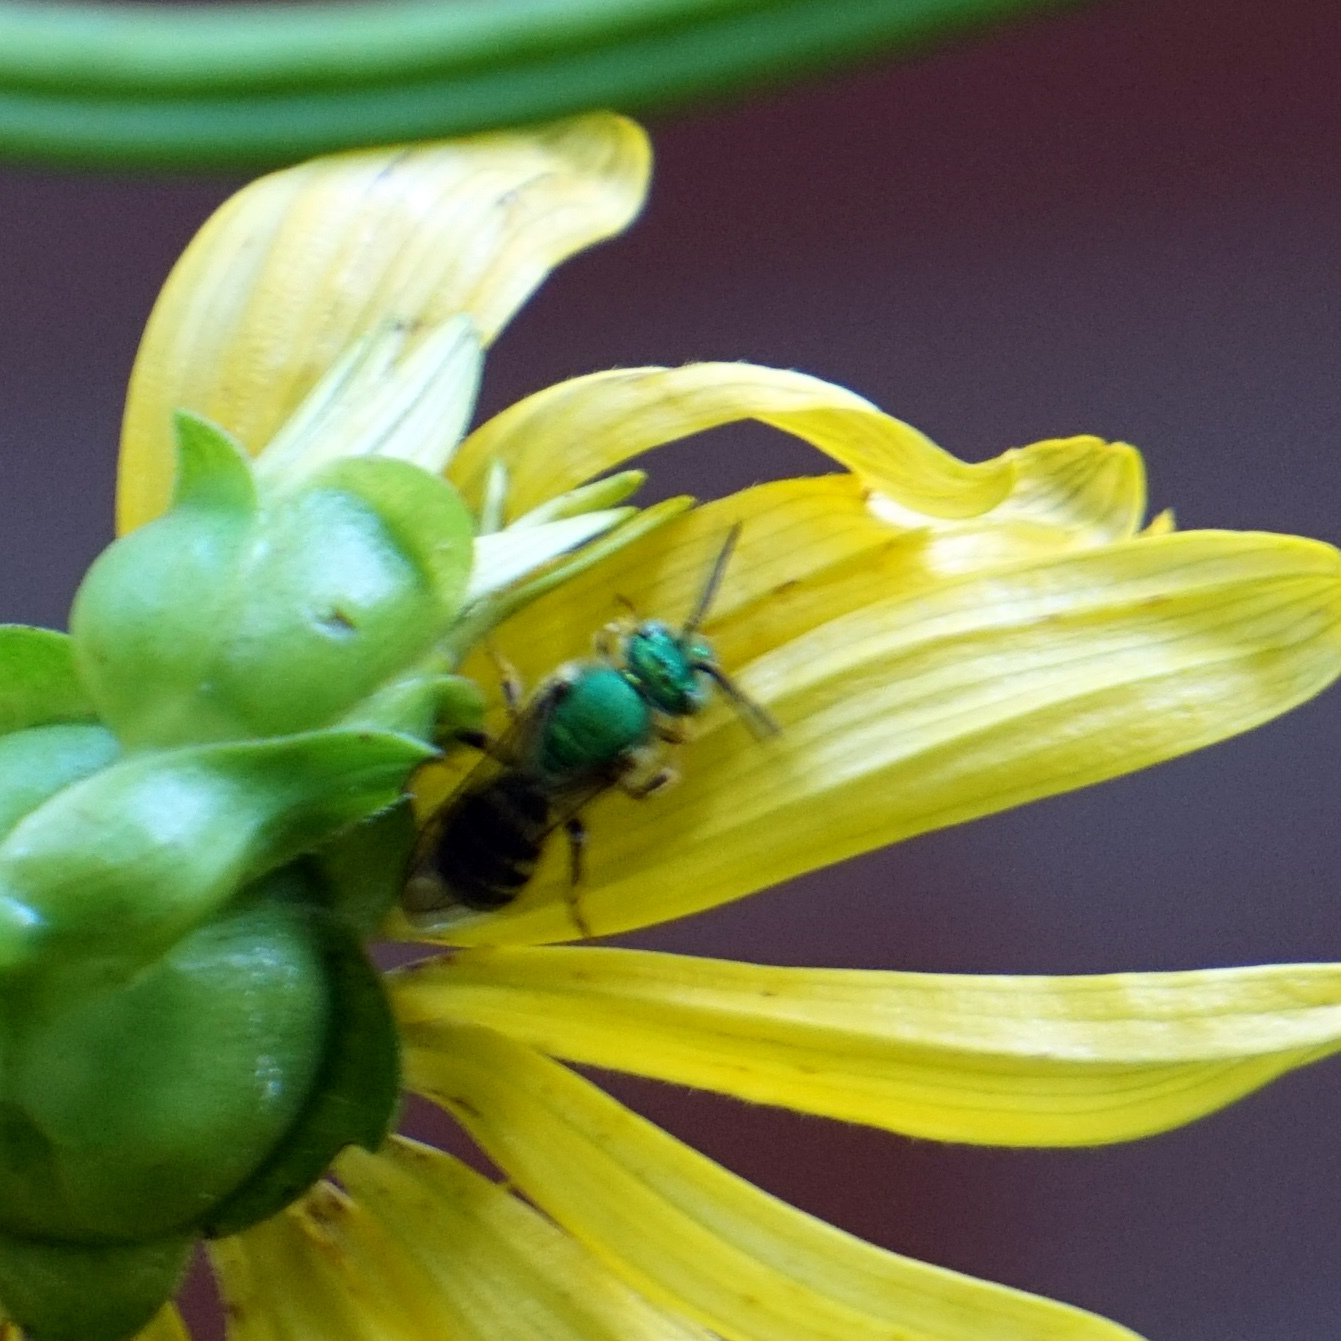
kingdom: Animalia
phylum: Arthropoda
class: Insecta
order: Hymenoptera
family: Halictidae
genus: Agapostemon
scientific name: Agapostemon virescens
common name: Bicolored striped sweat bee
